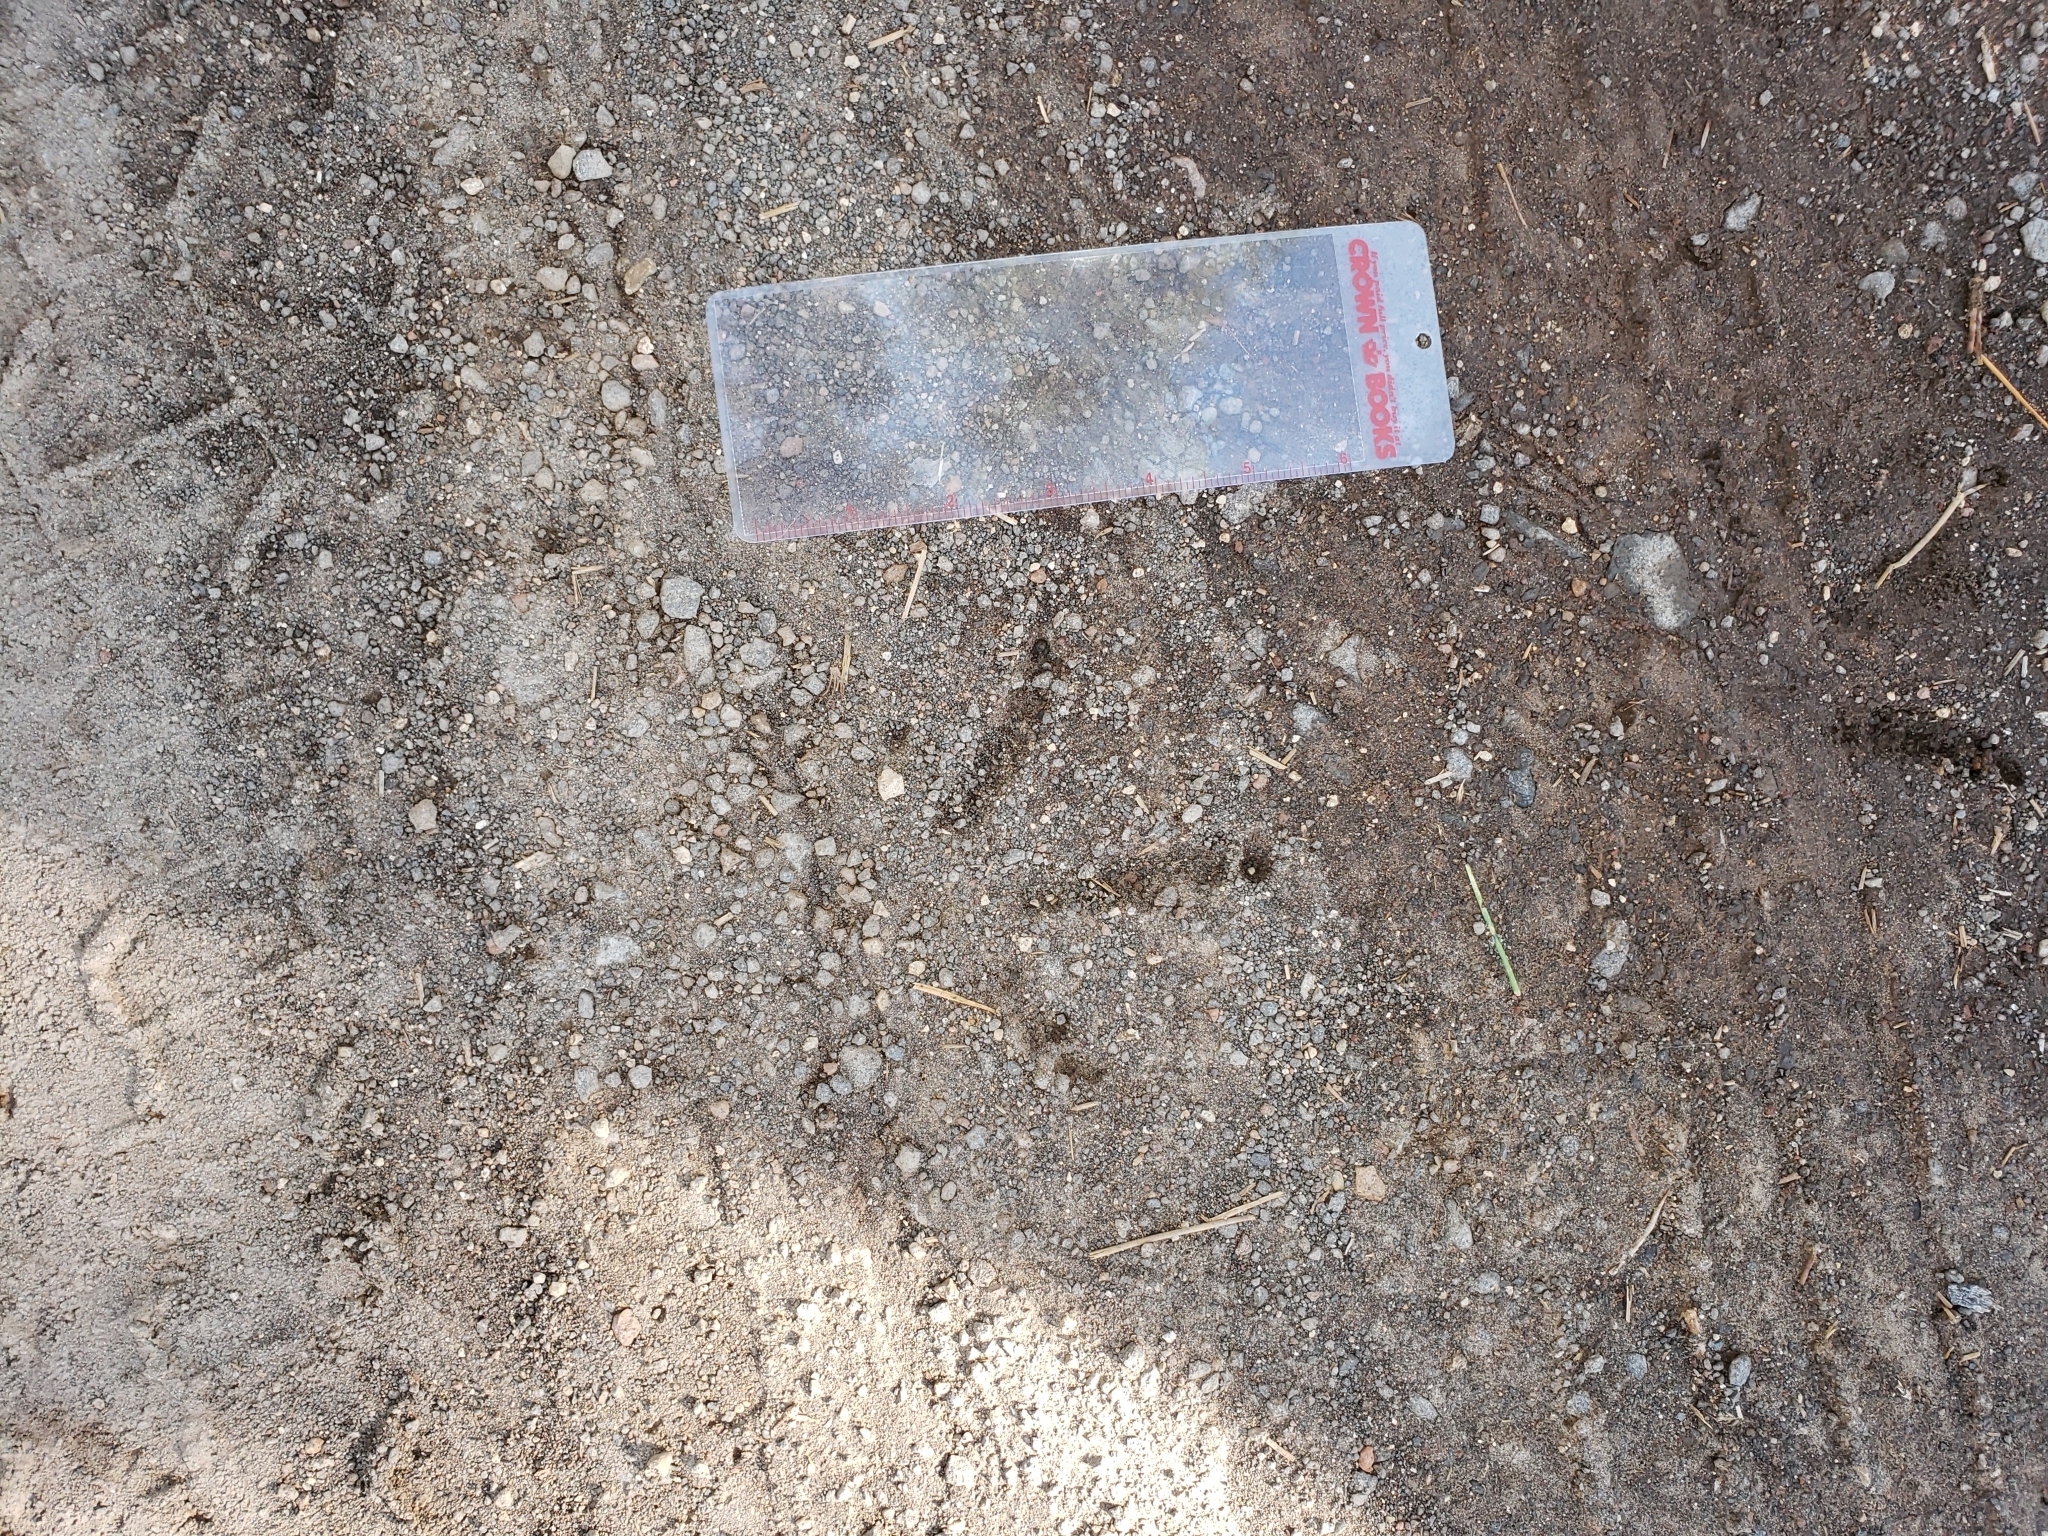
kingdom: Animalia
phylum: Chordata
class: Aves
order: Galliformes
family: Phasianidae
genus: Meleagris
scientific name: Meleagris gallopavo
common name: Wild turkey
